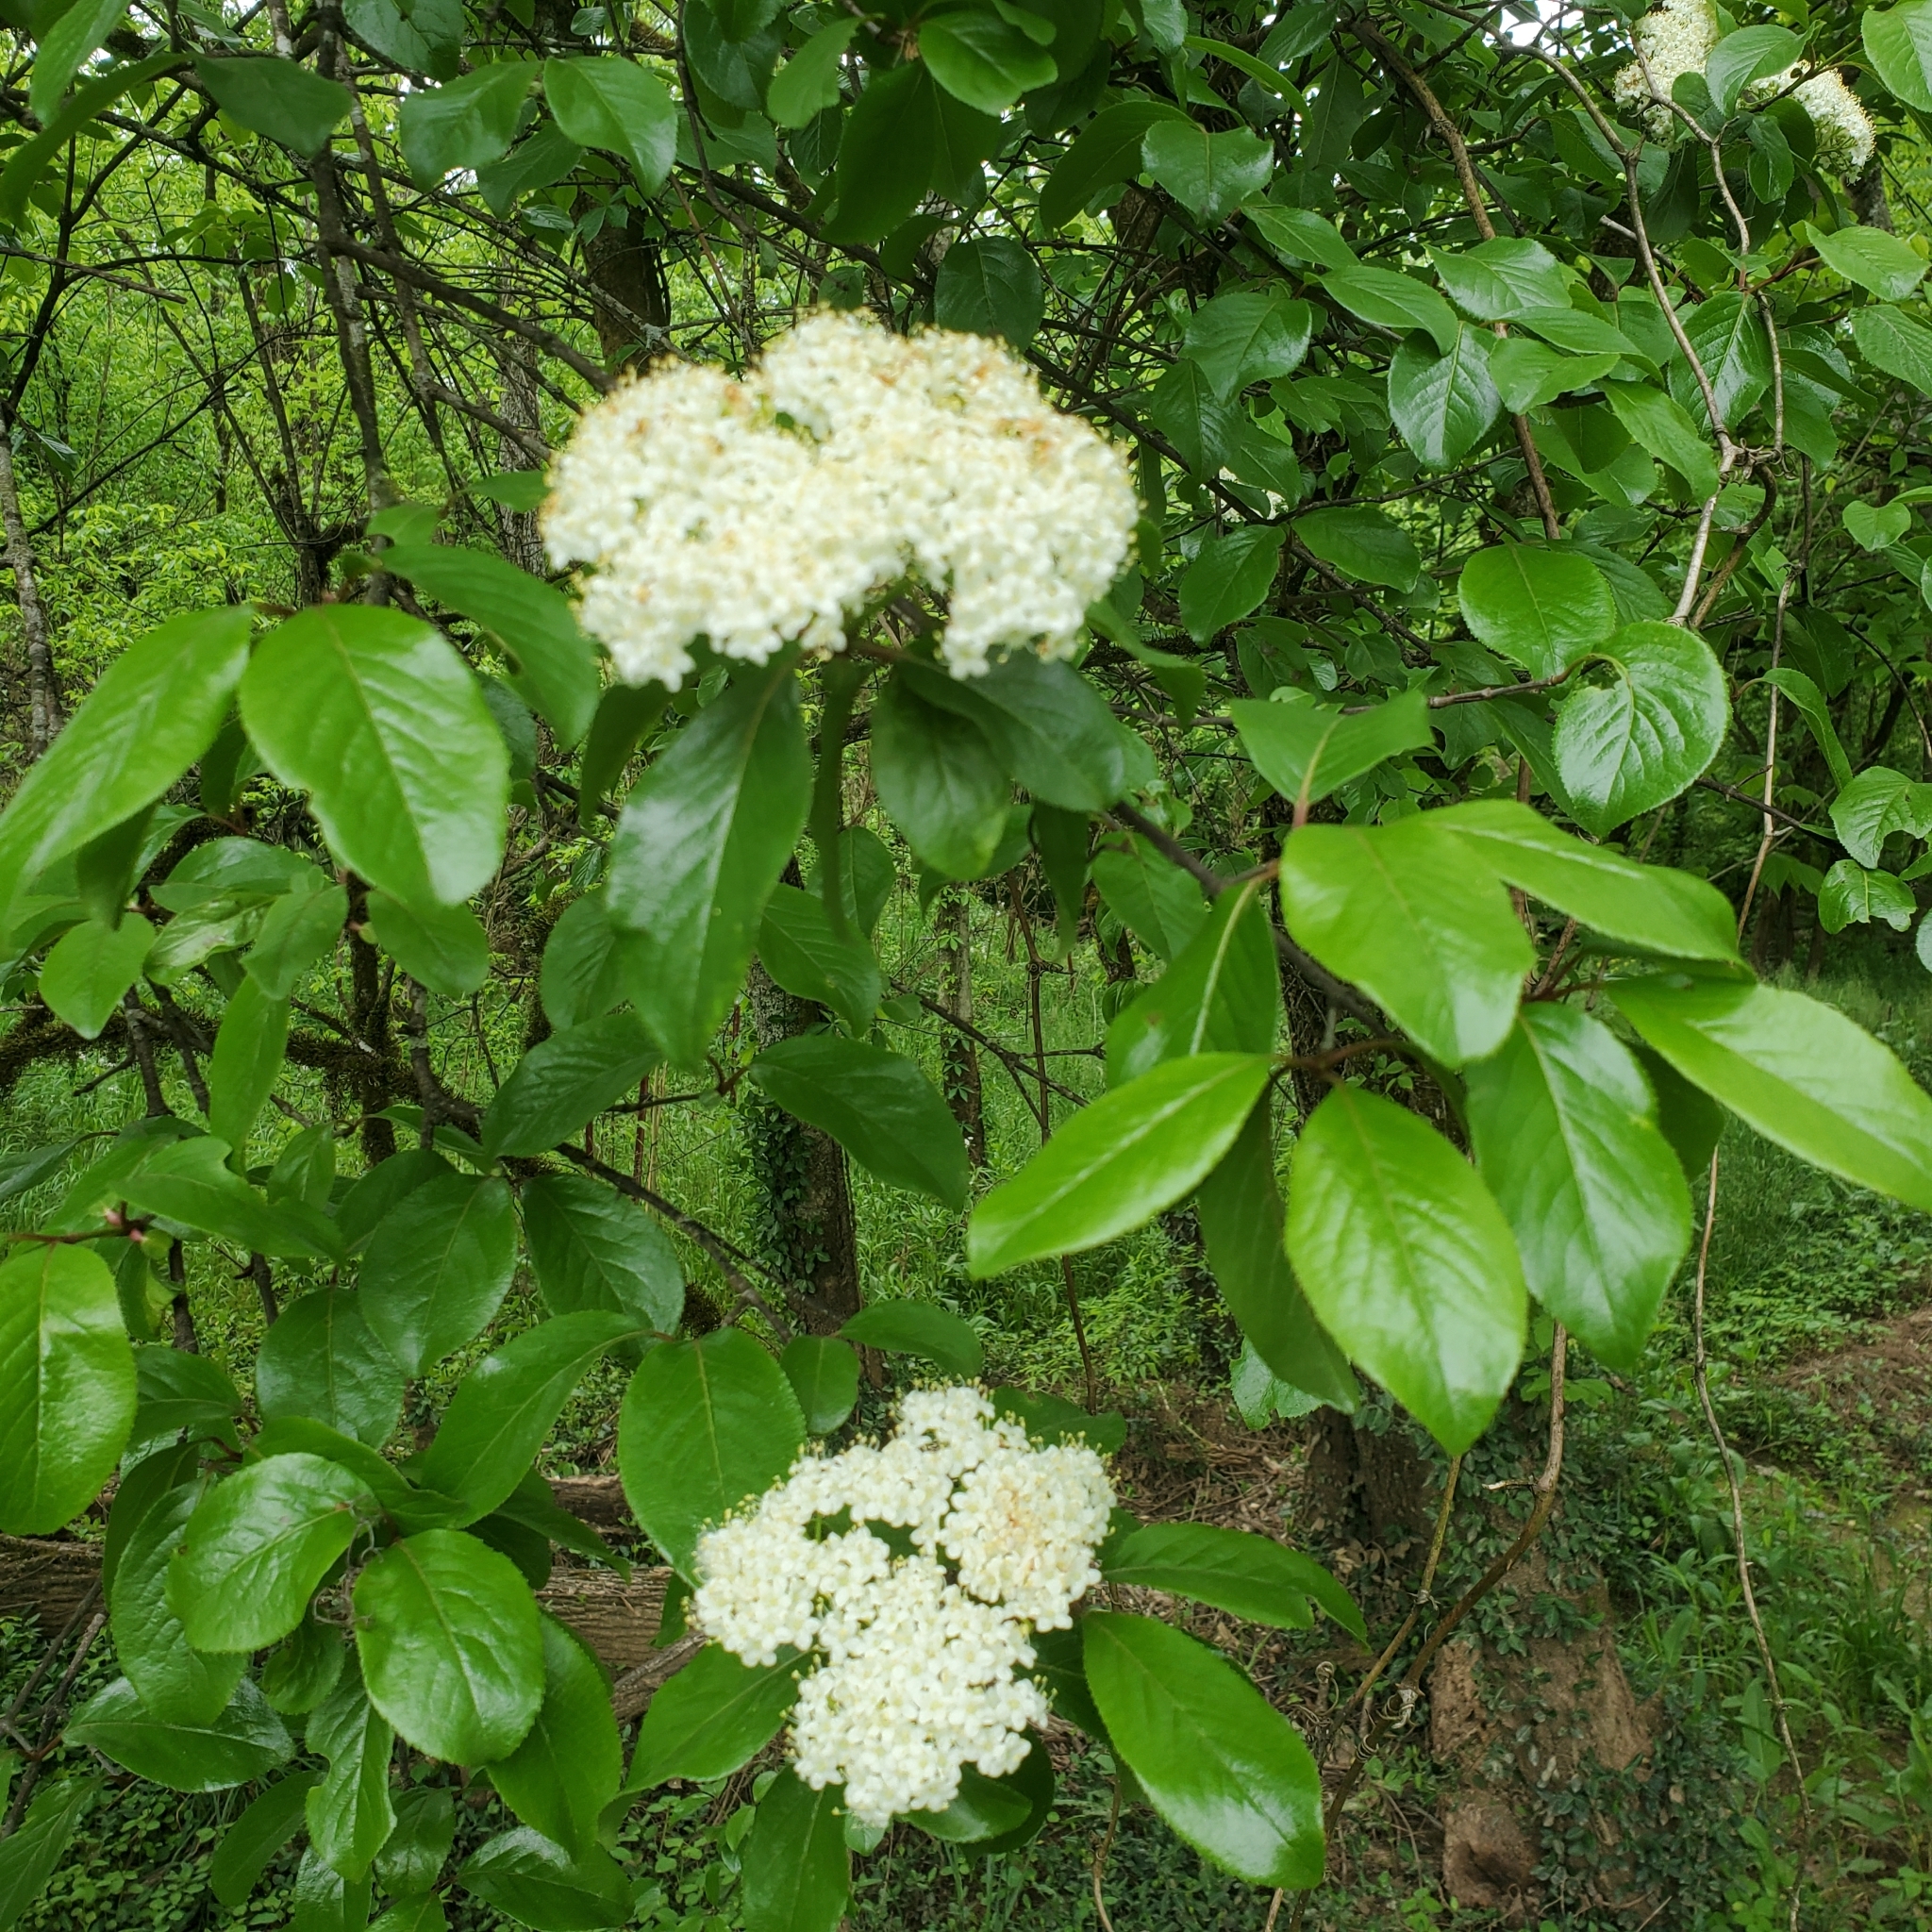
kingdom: Plantae
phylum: Tracheophyta
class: Magnoliopsida
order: Dipsacales
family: Viburnaceae
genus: Viburnum
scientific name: Viburnum rufidulum
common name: Blue haw
